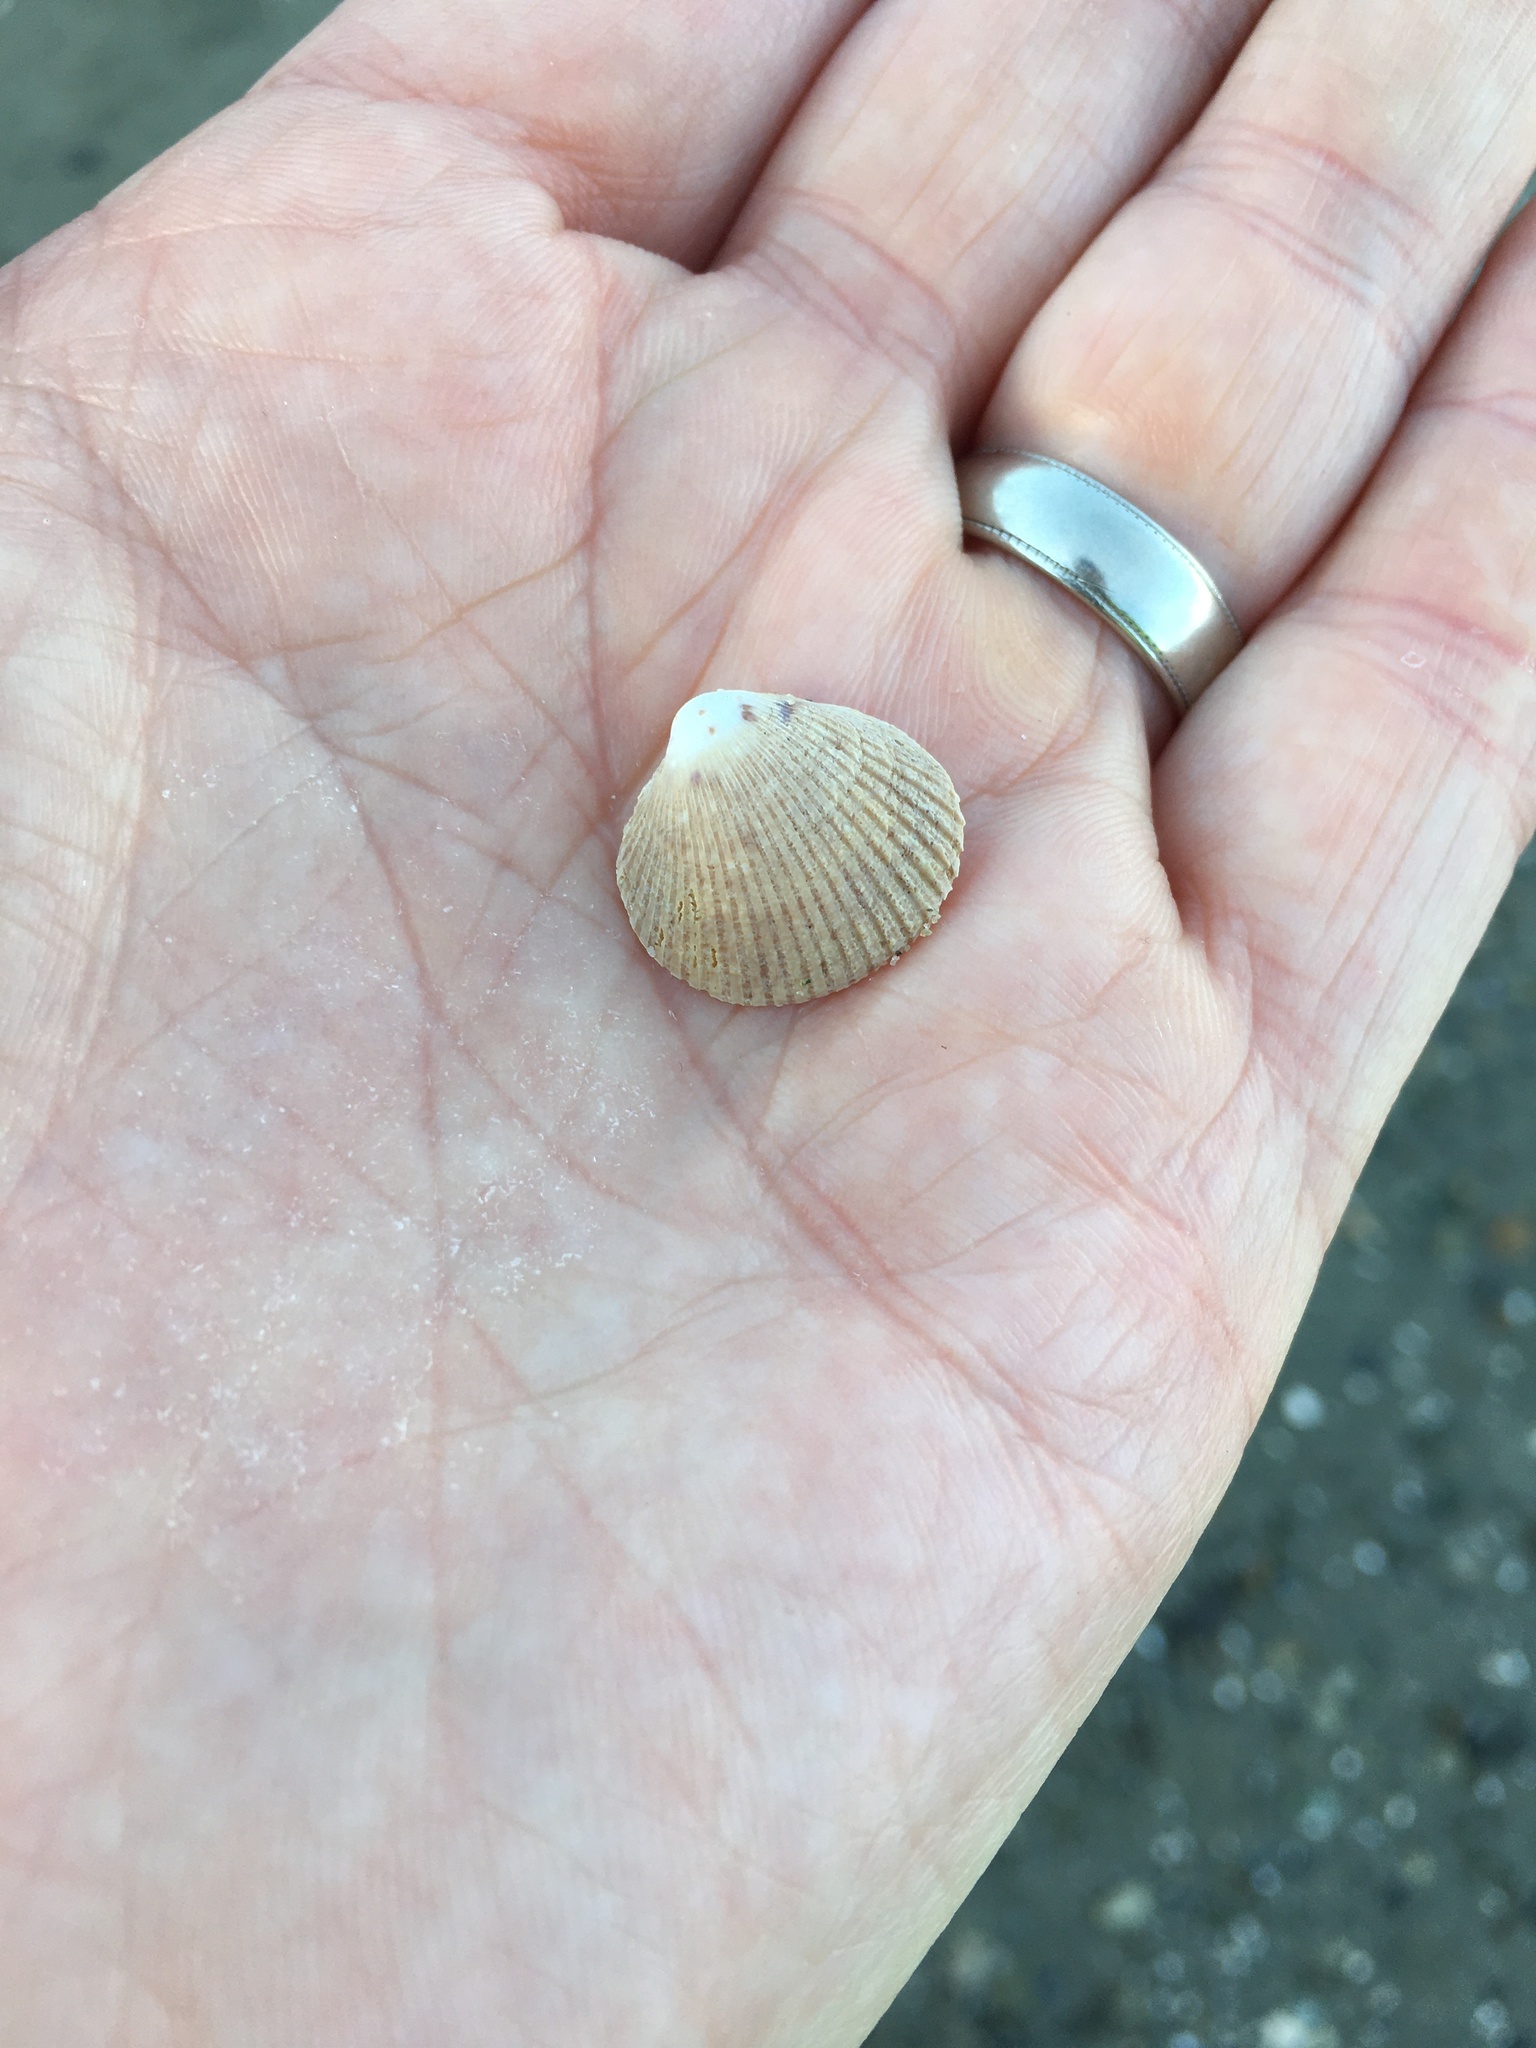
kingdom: Animalia
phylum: Mollusca
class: Bivalvia
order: Cardiida
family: Cardiidae
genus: Clinocardium
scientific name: Clinocardium nuttallii
